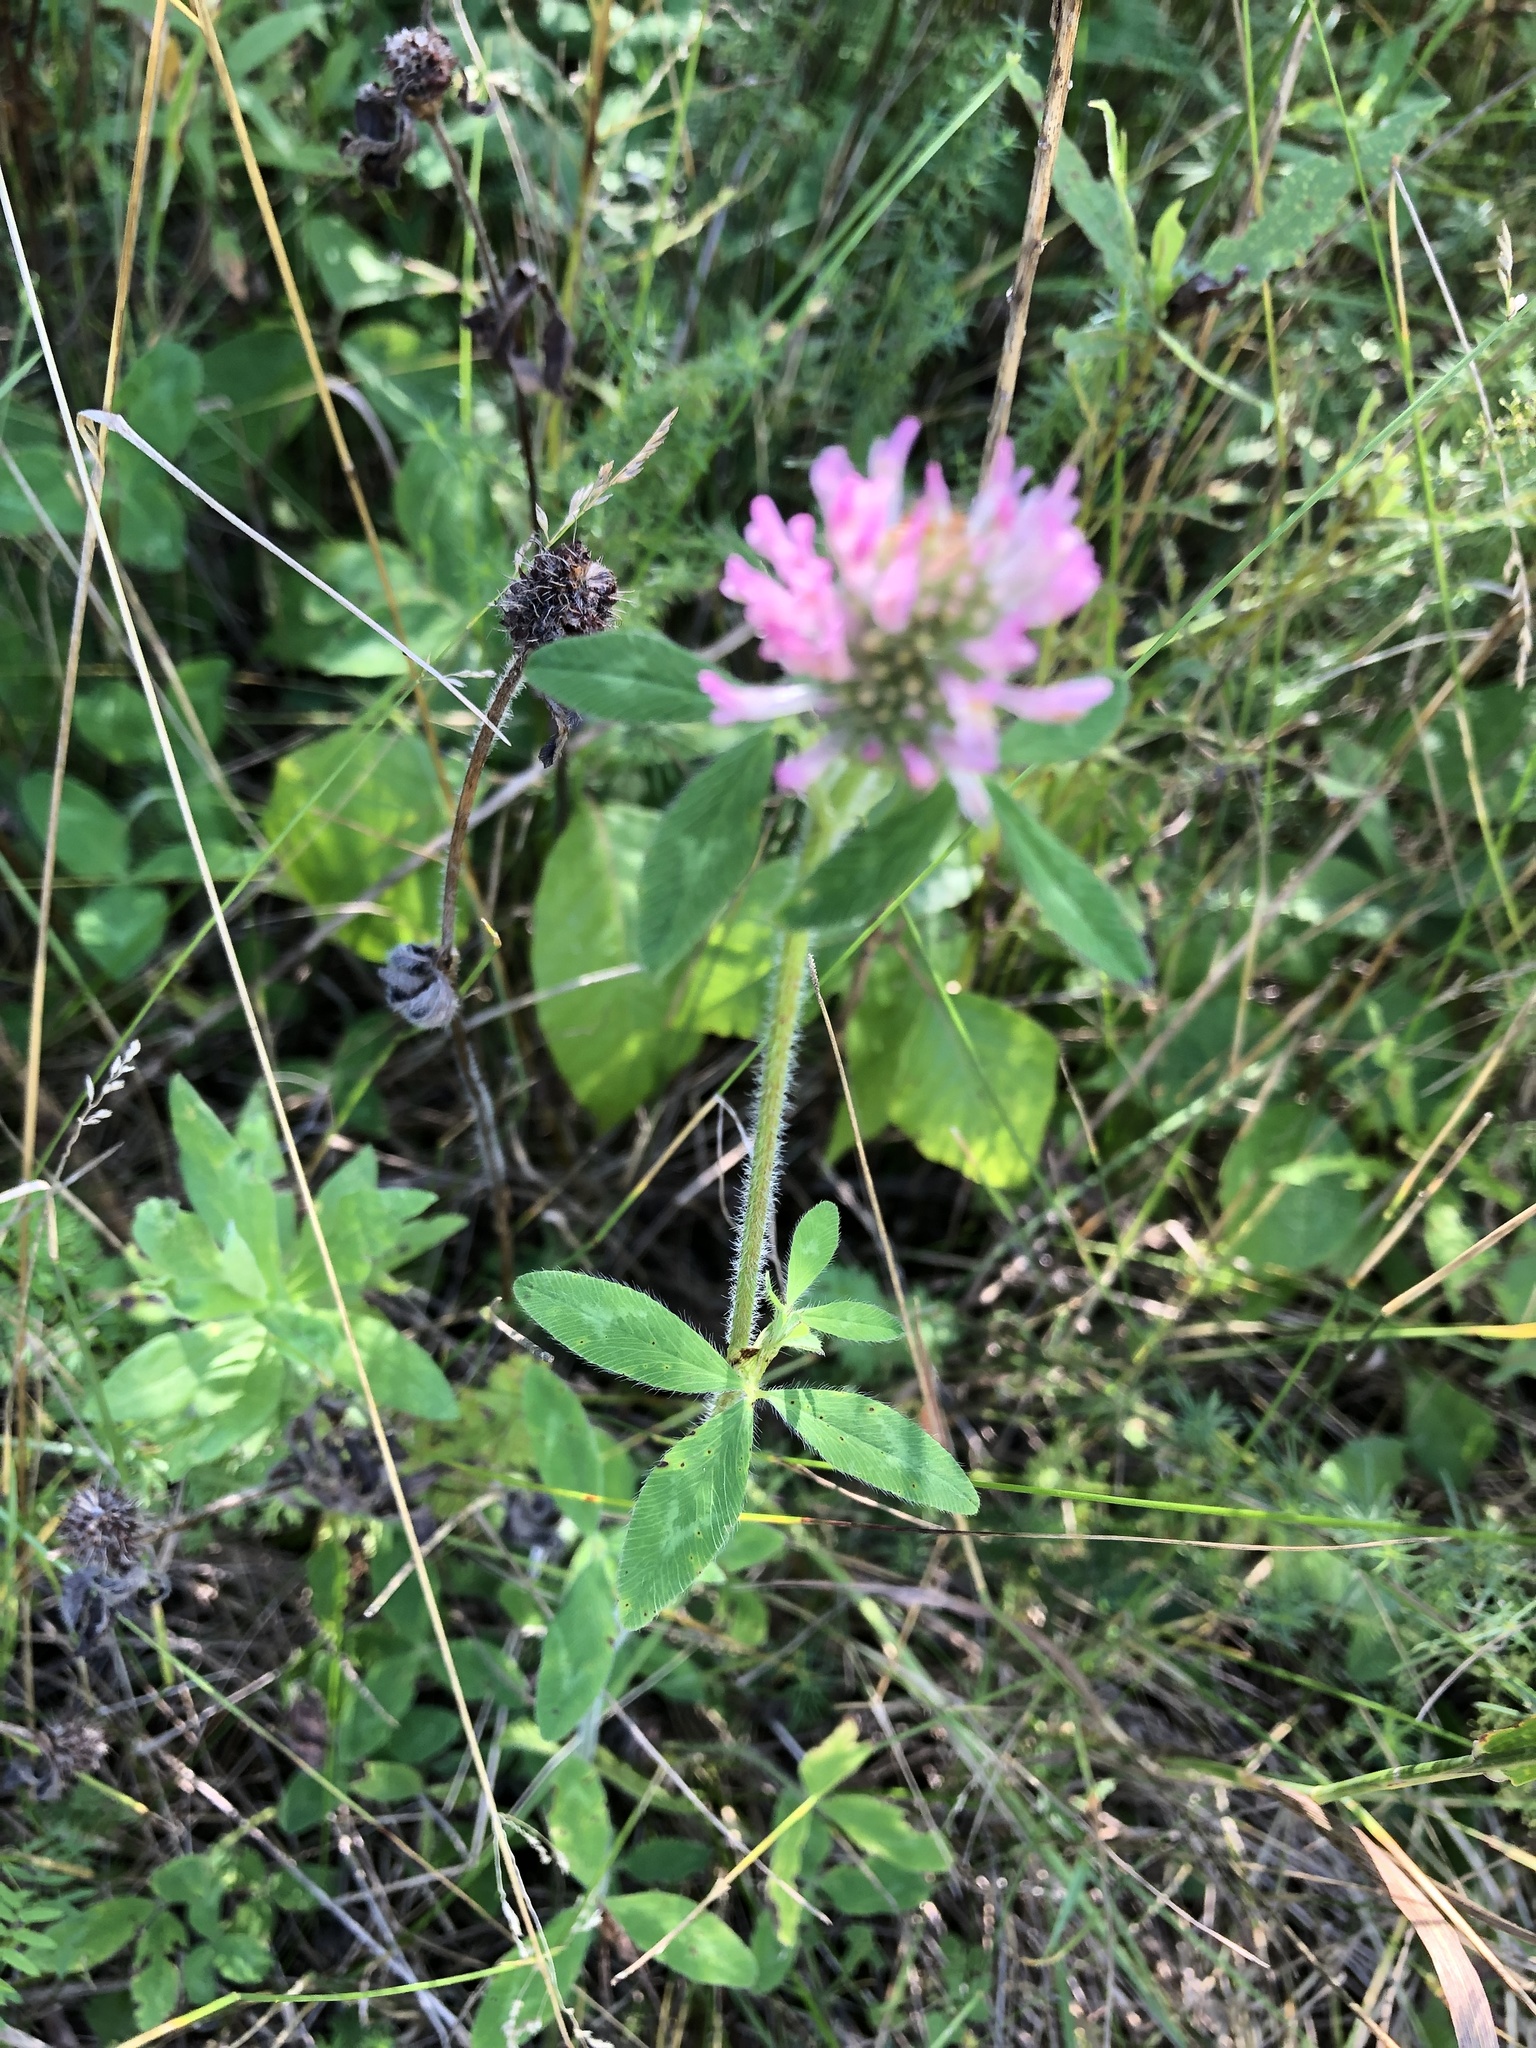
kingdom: Plantae
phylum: Tracheophyta
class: Magnoliopsida
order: Fabales
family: Fabaceae
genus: Trifolium
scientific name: Trifolium pratense
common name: Red clover
